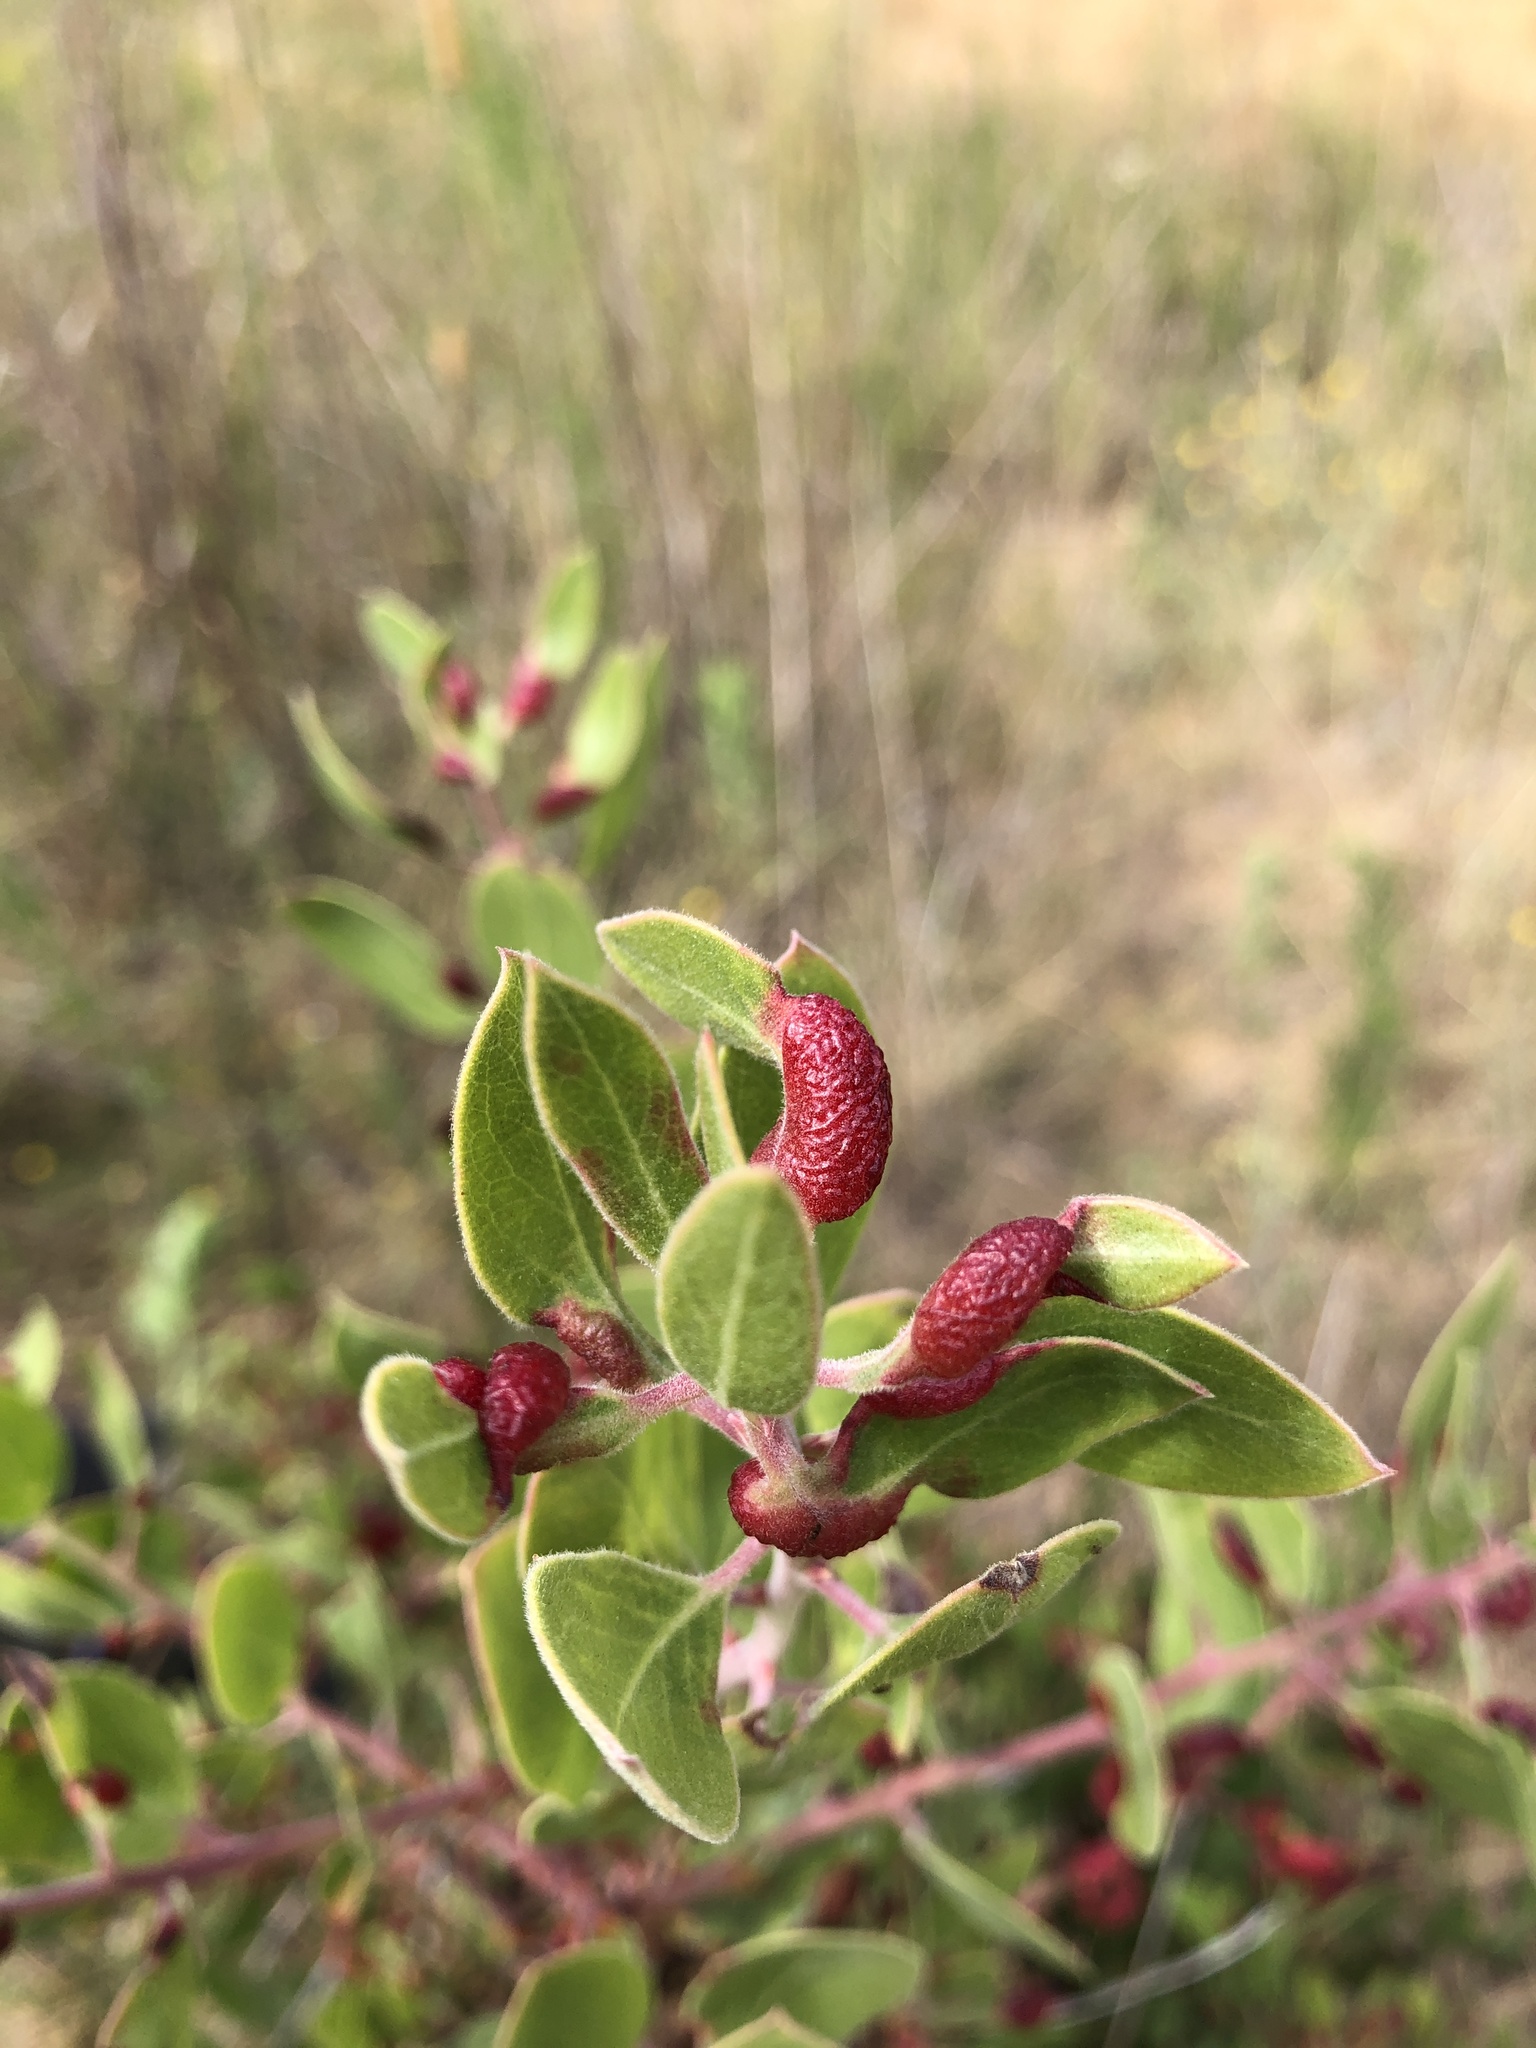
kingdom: Animalia
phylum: Arthropoda
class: Insecta
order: Hemiptera
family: Aphididae
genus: Tamalia
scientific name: Tamalia coweni
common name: Manzanita leafgall aphid
